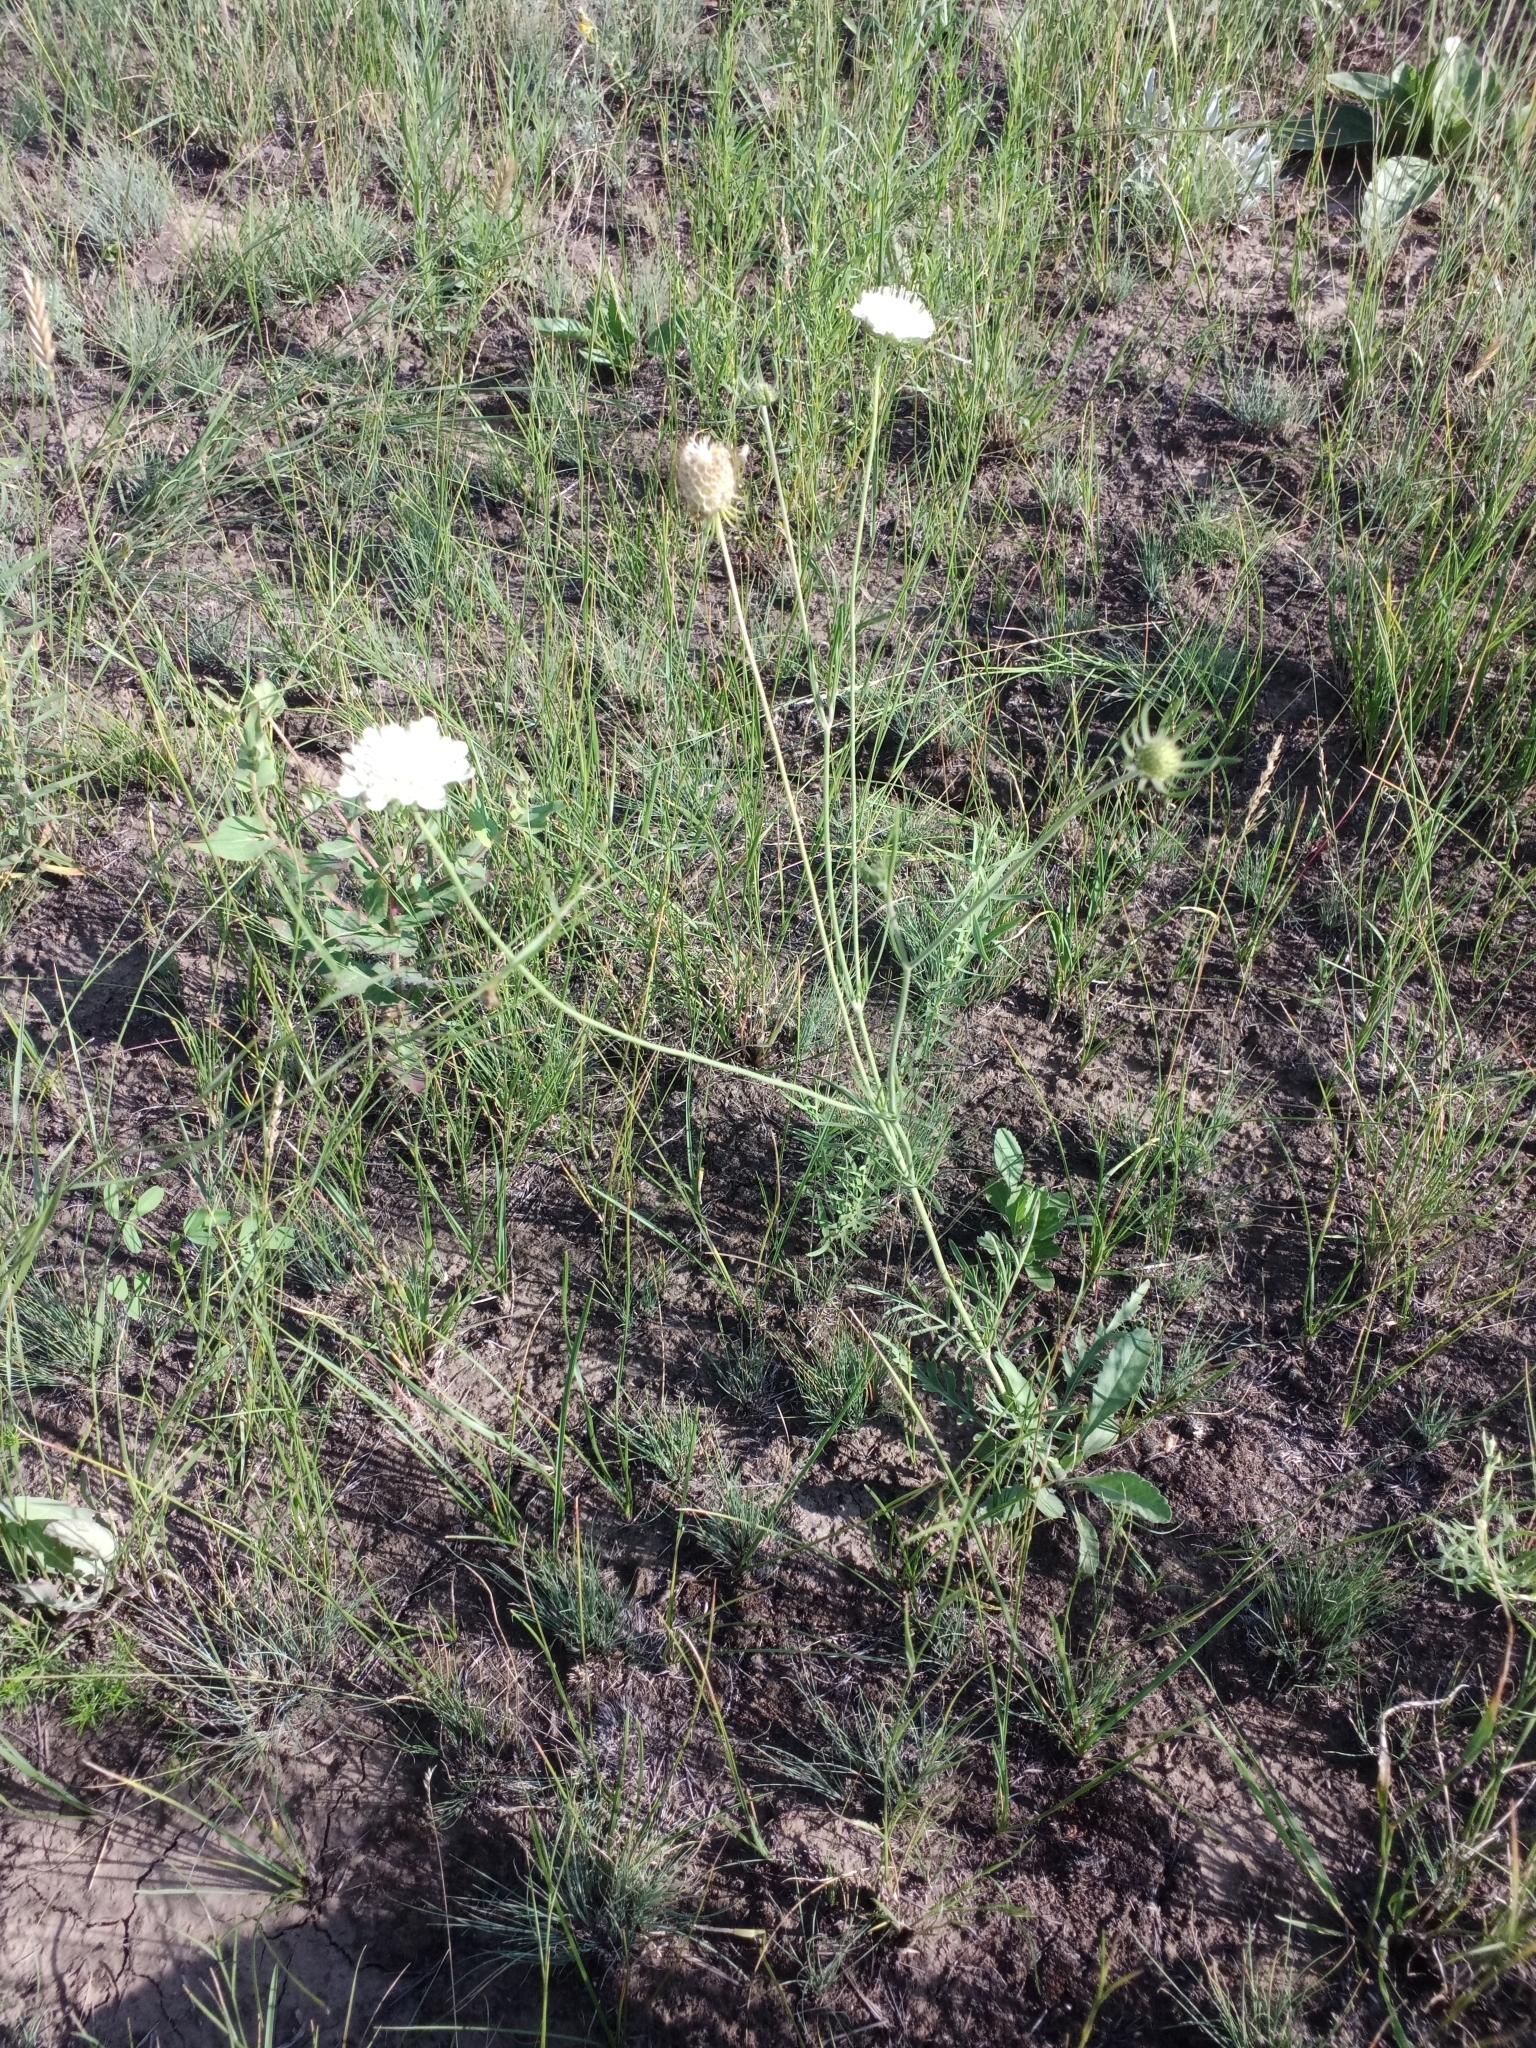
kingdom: Plantae
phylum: Tracheophyta
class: Magnoliopsida
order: Dipsacales
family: Caprifoliaceae
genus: Scabiosa
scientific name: Scabiosa ochroleuca
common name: Cream pincushions
